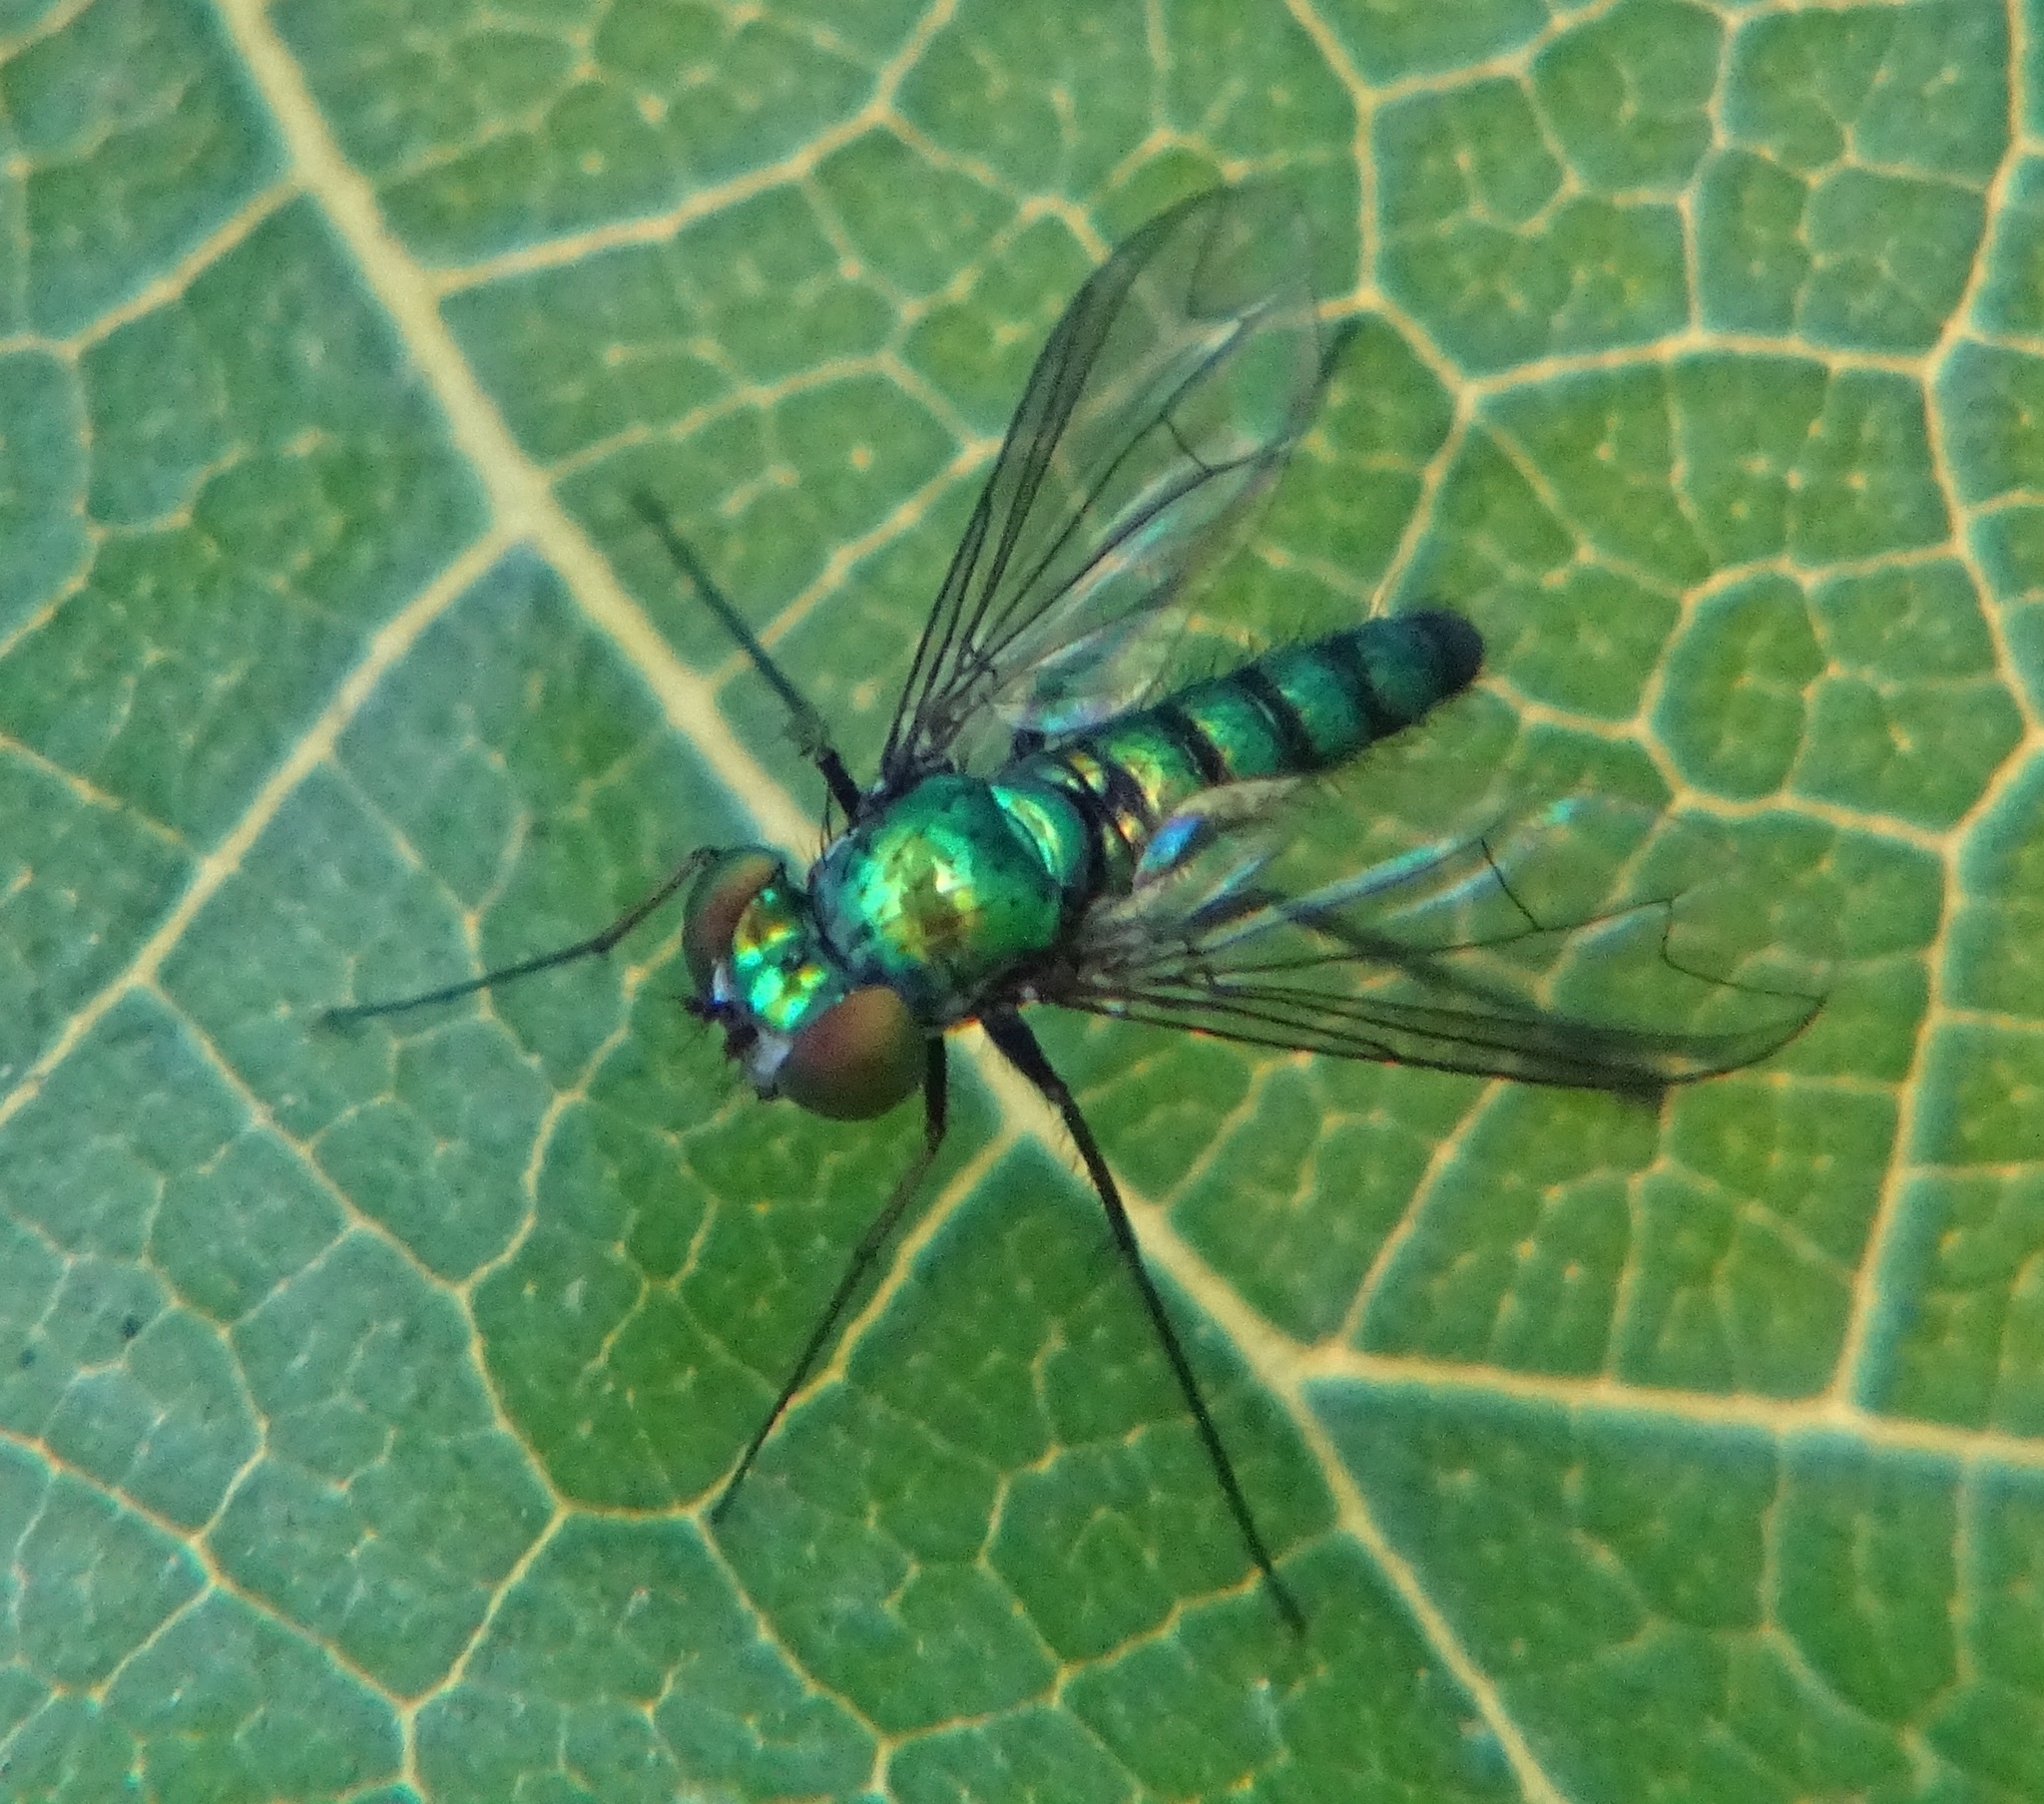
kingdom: Animalia
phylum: Arthropoda
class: Insecta
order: Diptera
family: Dolichopodidae
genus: Condylostylus
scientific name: Condylostylus longicornis
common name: Long-legged fly
